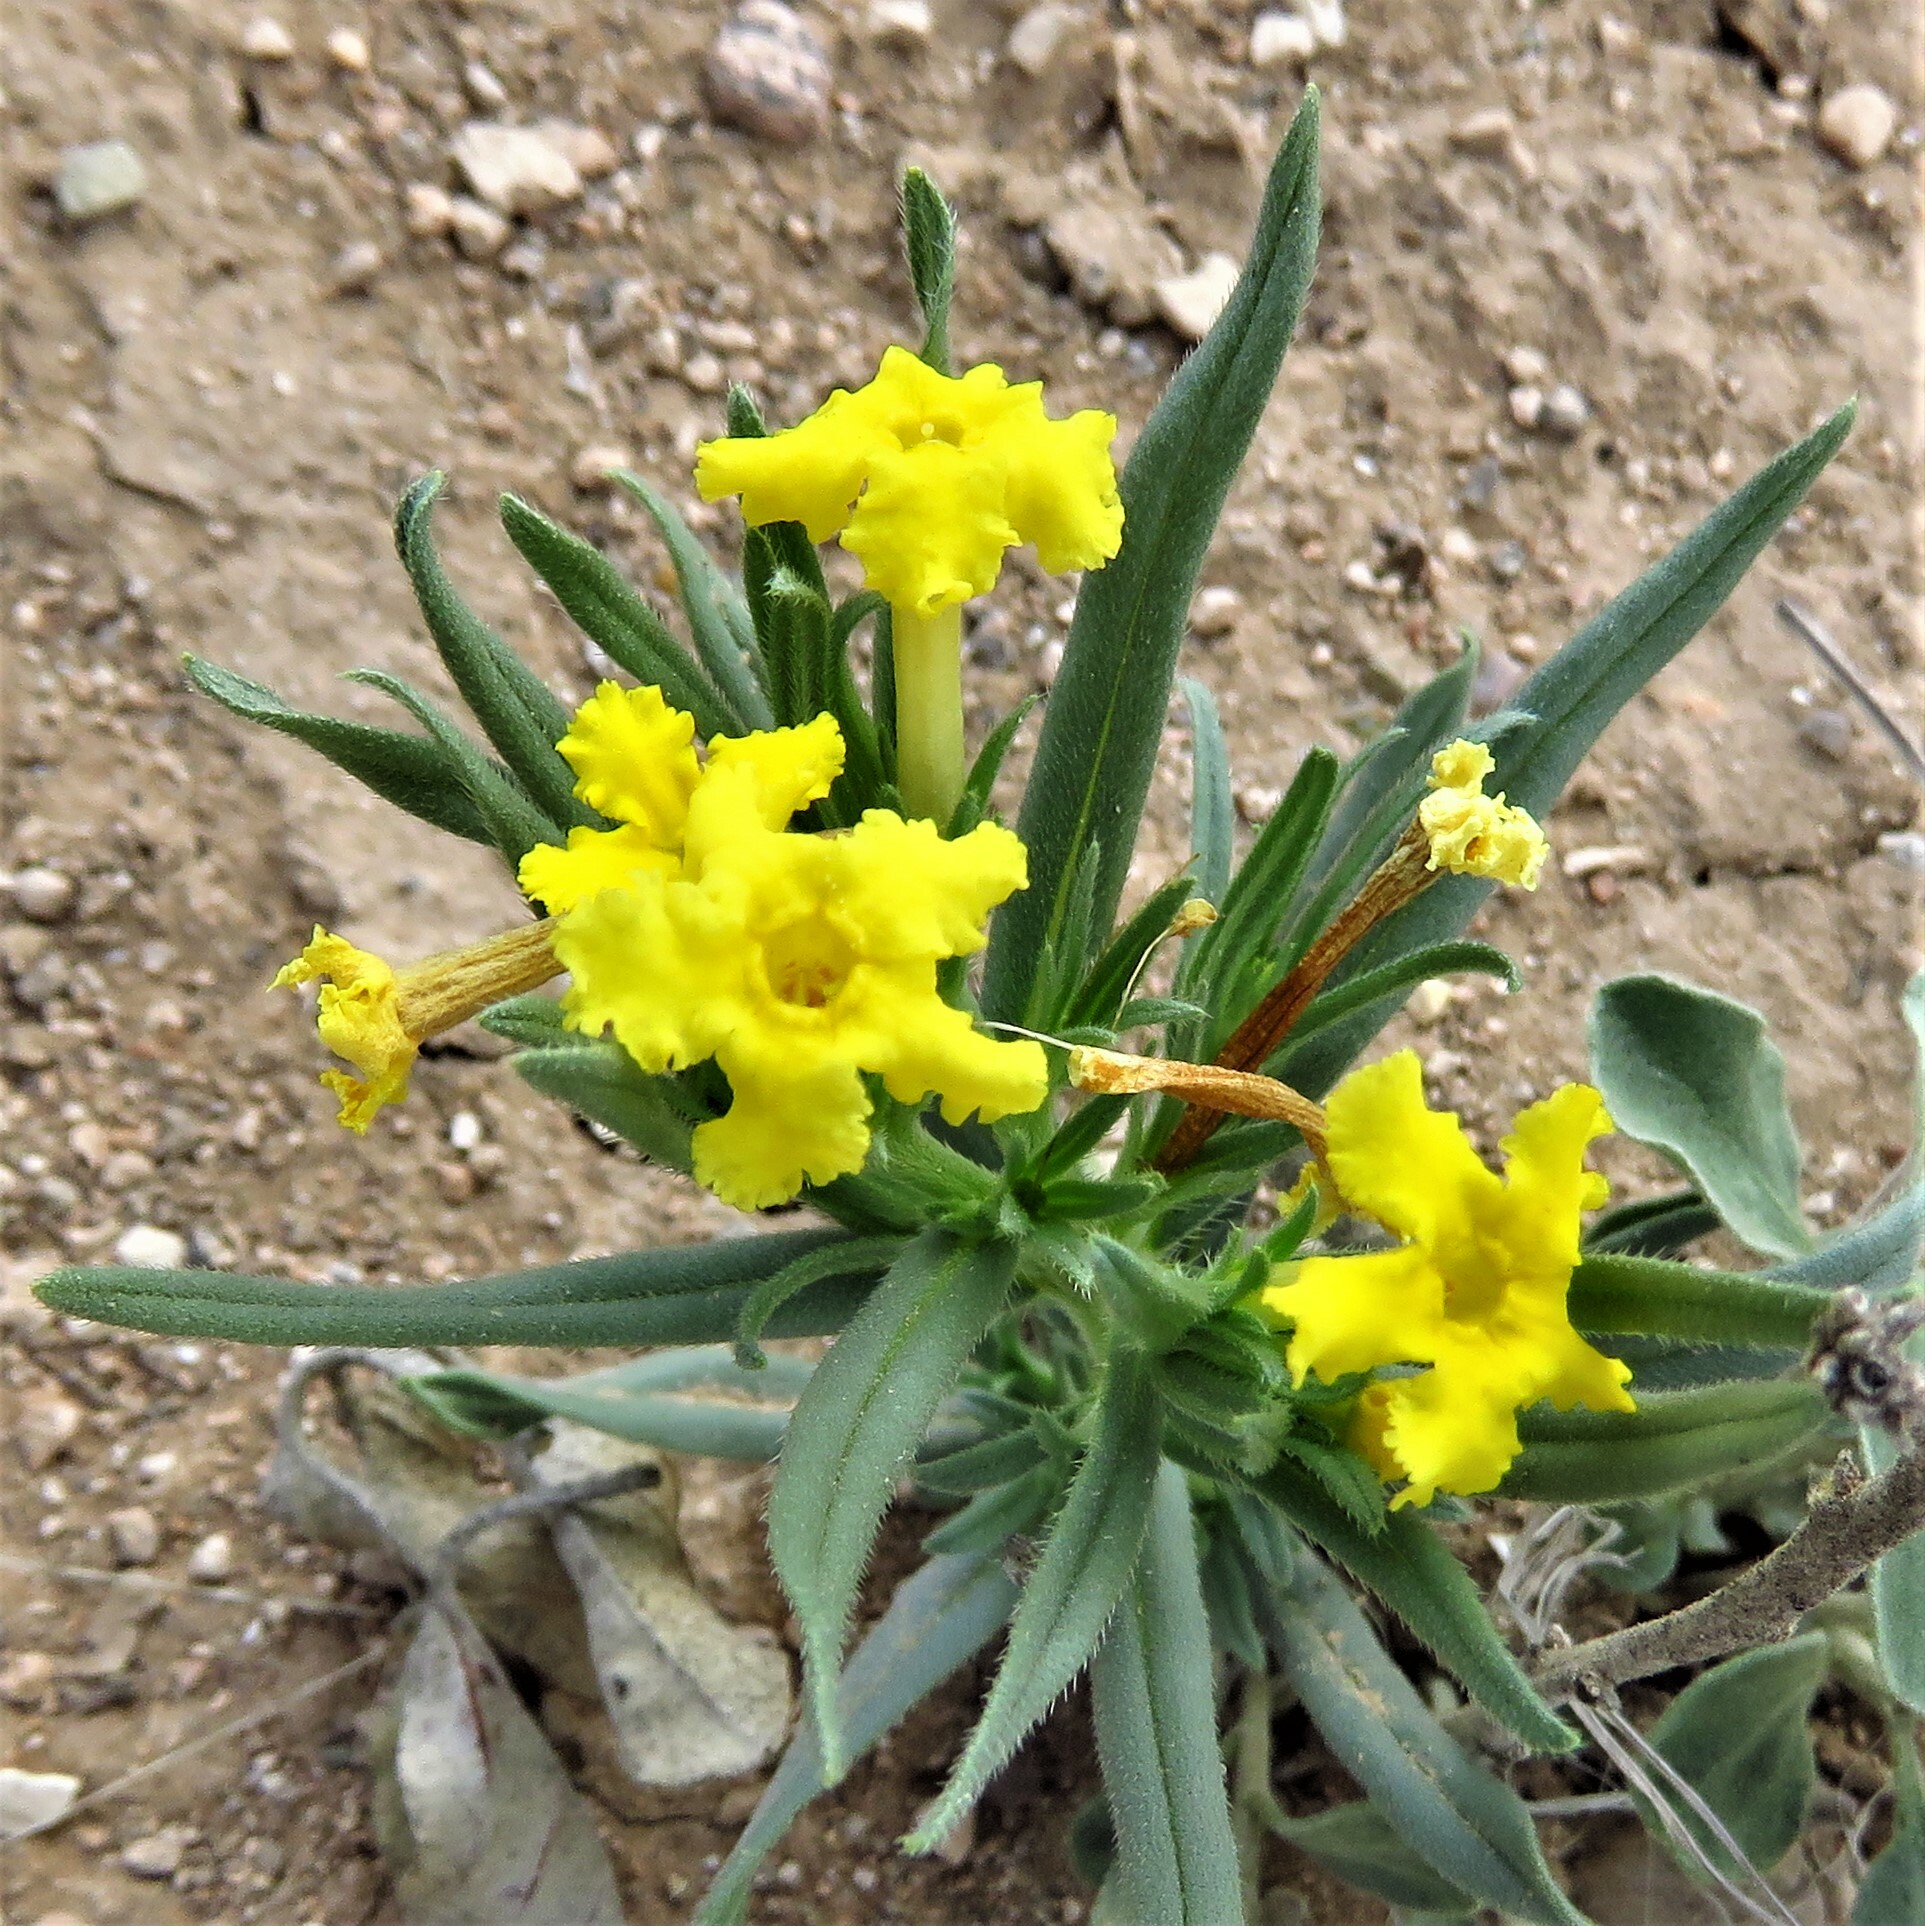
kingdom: Plantae
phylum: Tracheophyta
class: Magnoliopsida
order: Boraginales
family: Boraginaceae
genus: Lithospermum
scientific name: Lithospermum incisum
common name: Fringed gromwell
